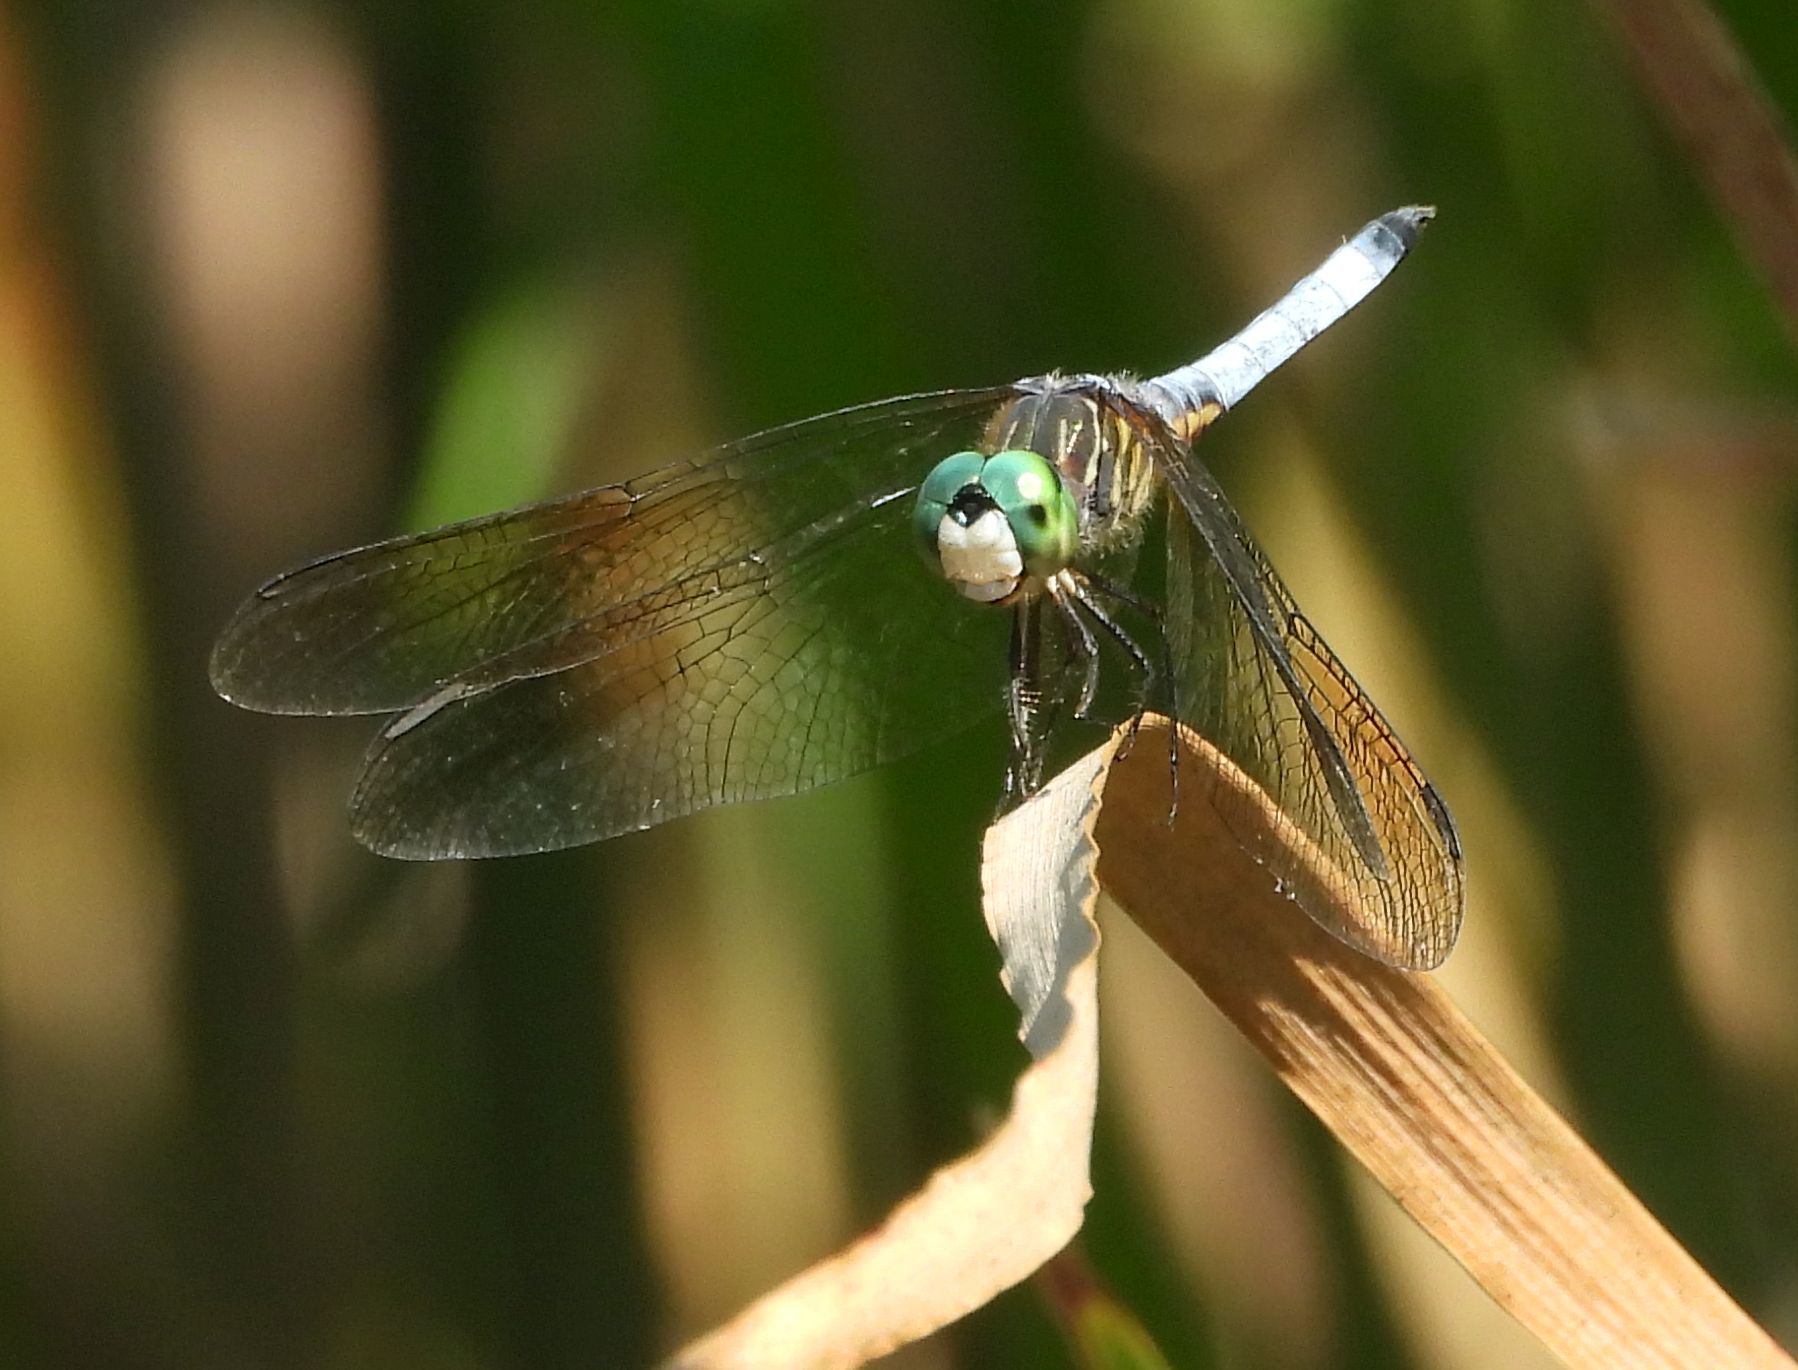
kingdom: Animalia
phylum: Arthropoda
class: Insecta
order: Odonata
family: Libellulidae
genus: Pachydiplax
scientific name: Pachydiplax longipennis
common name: Blue dasher
